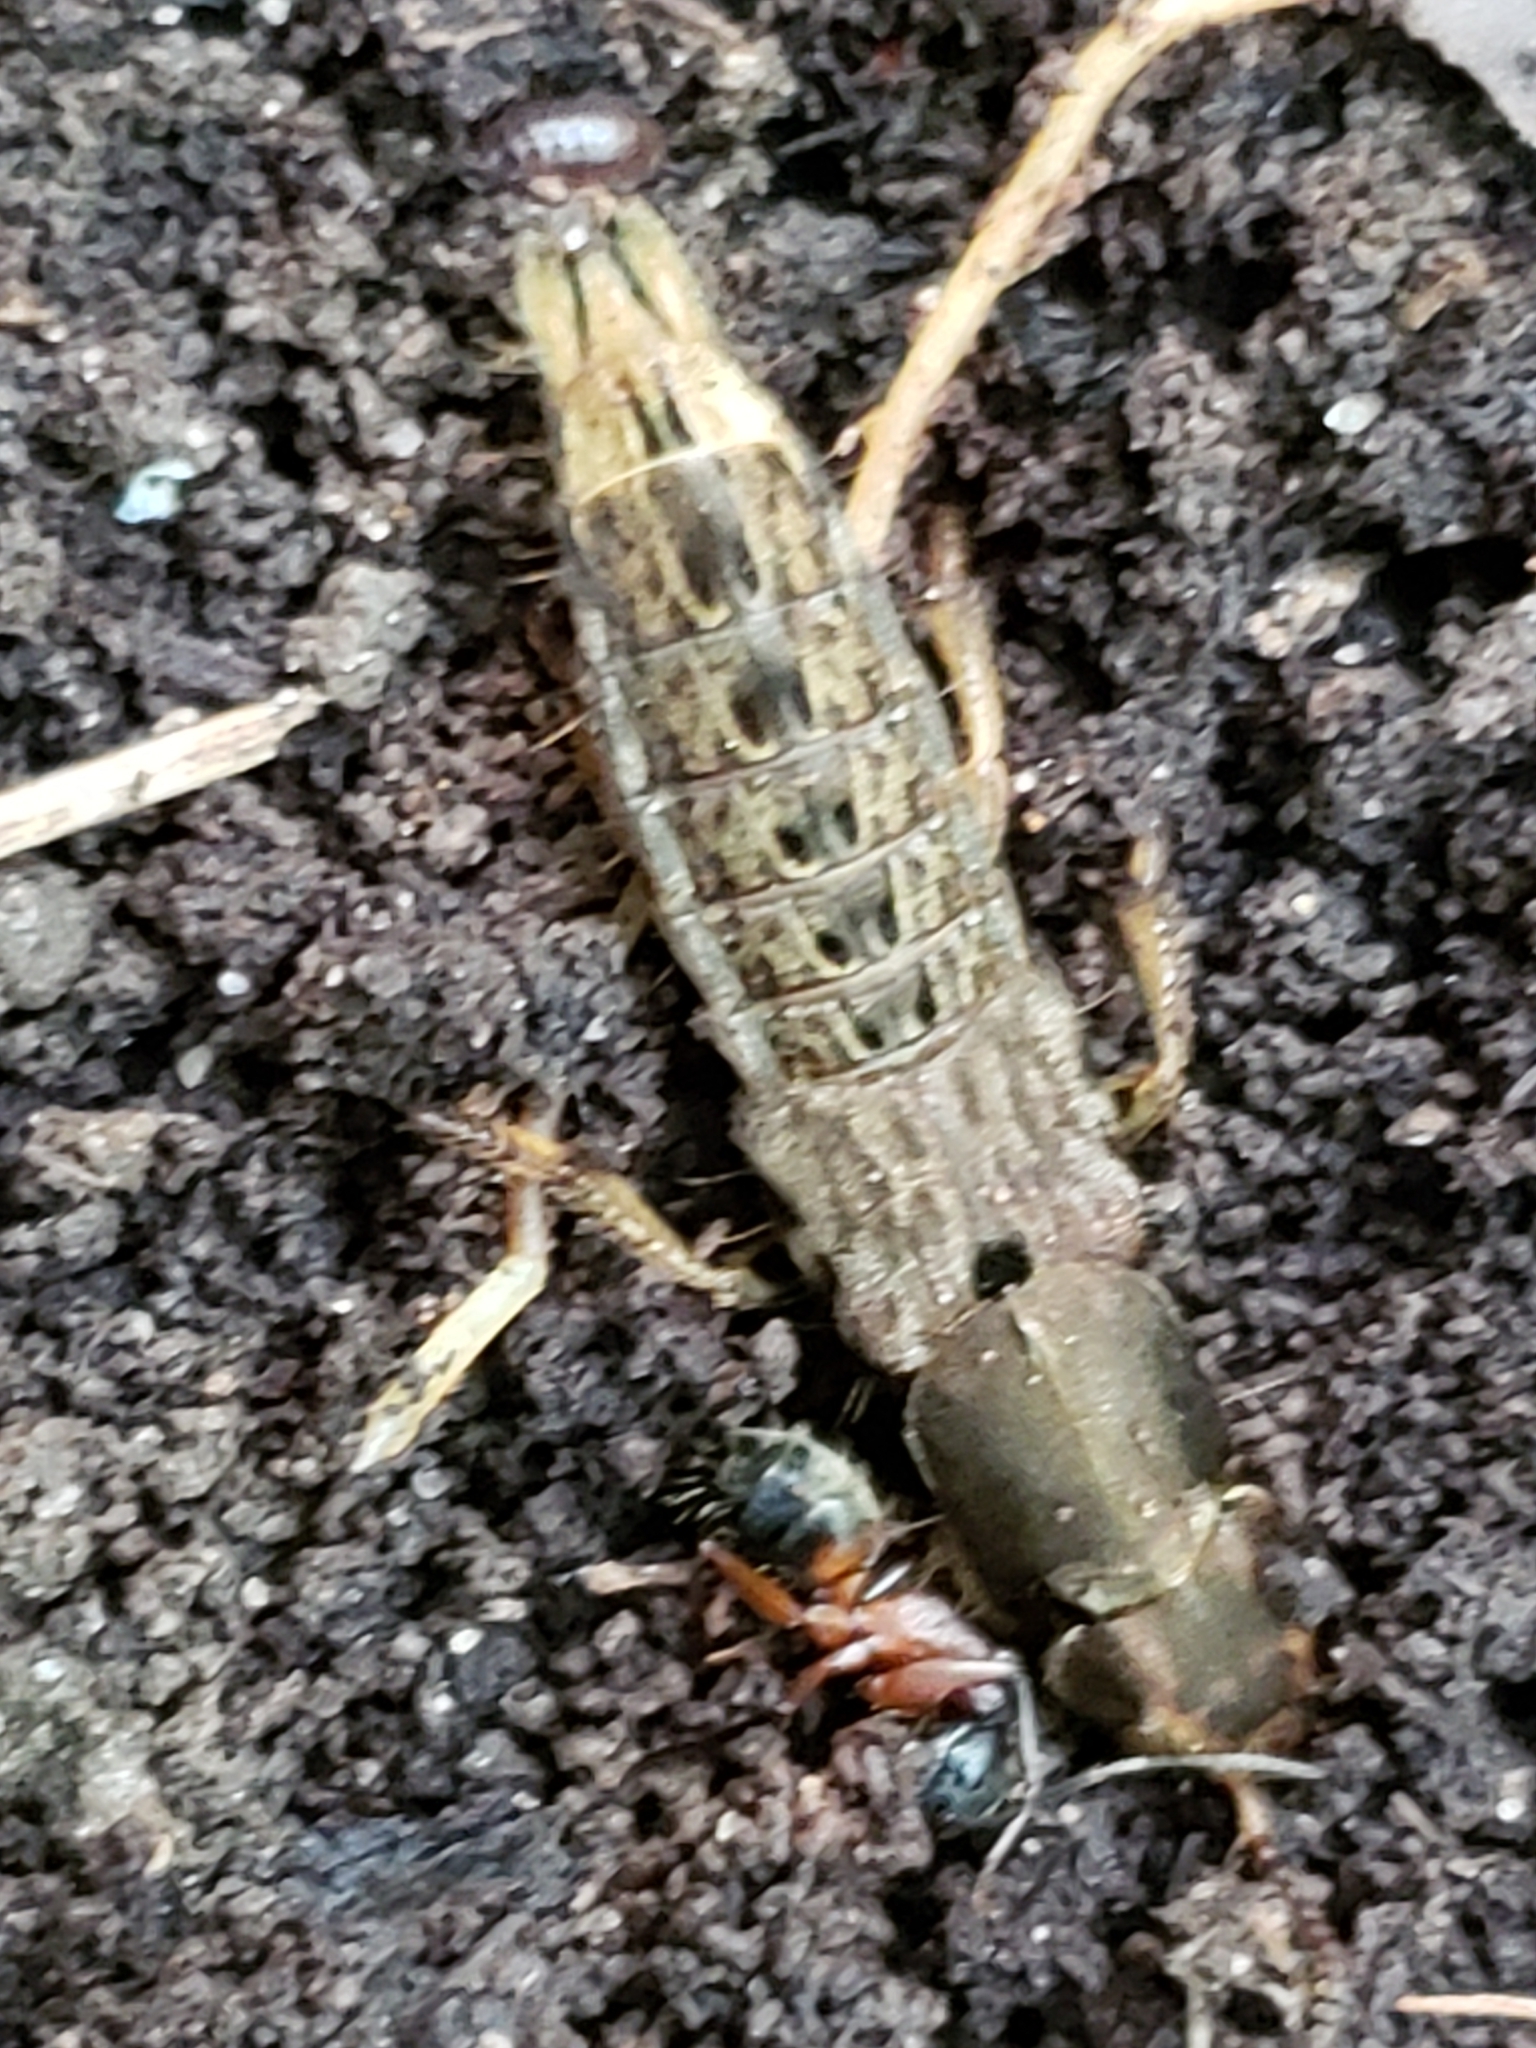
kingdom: Animalia
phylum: Arthropoda
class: Insecta
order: Coleoptera
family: Staphylinidae
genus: Platydracus
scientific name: Platydracus maculosus
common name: Brown rove beetle
